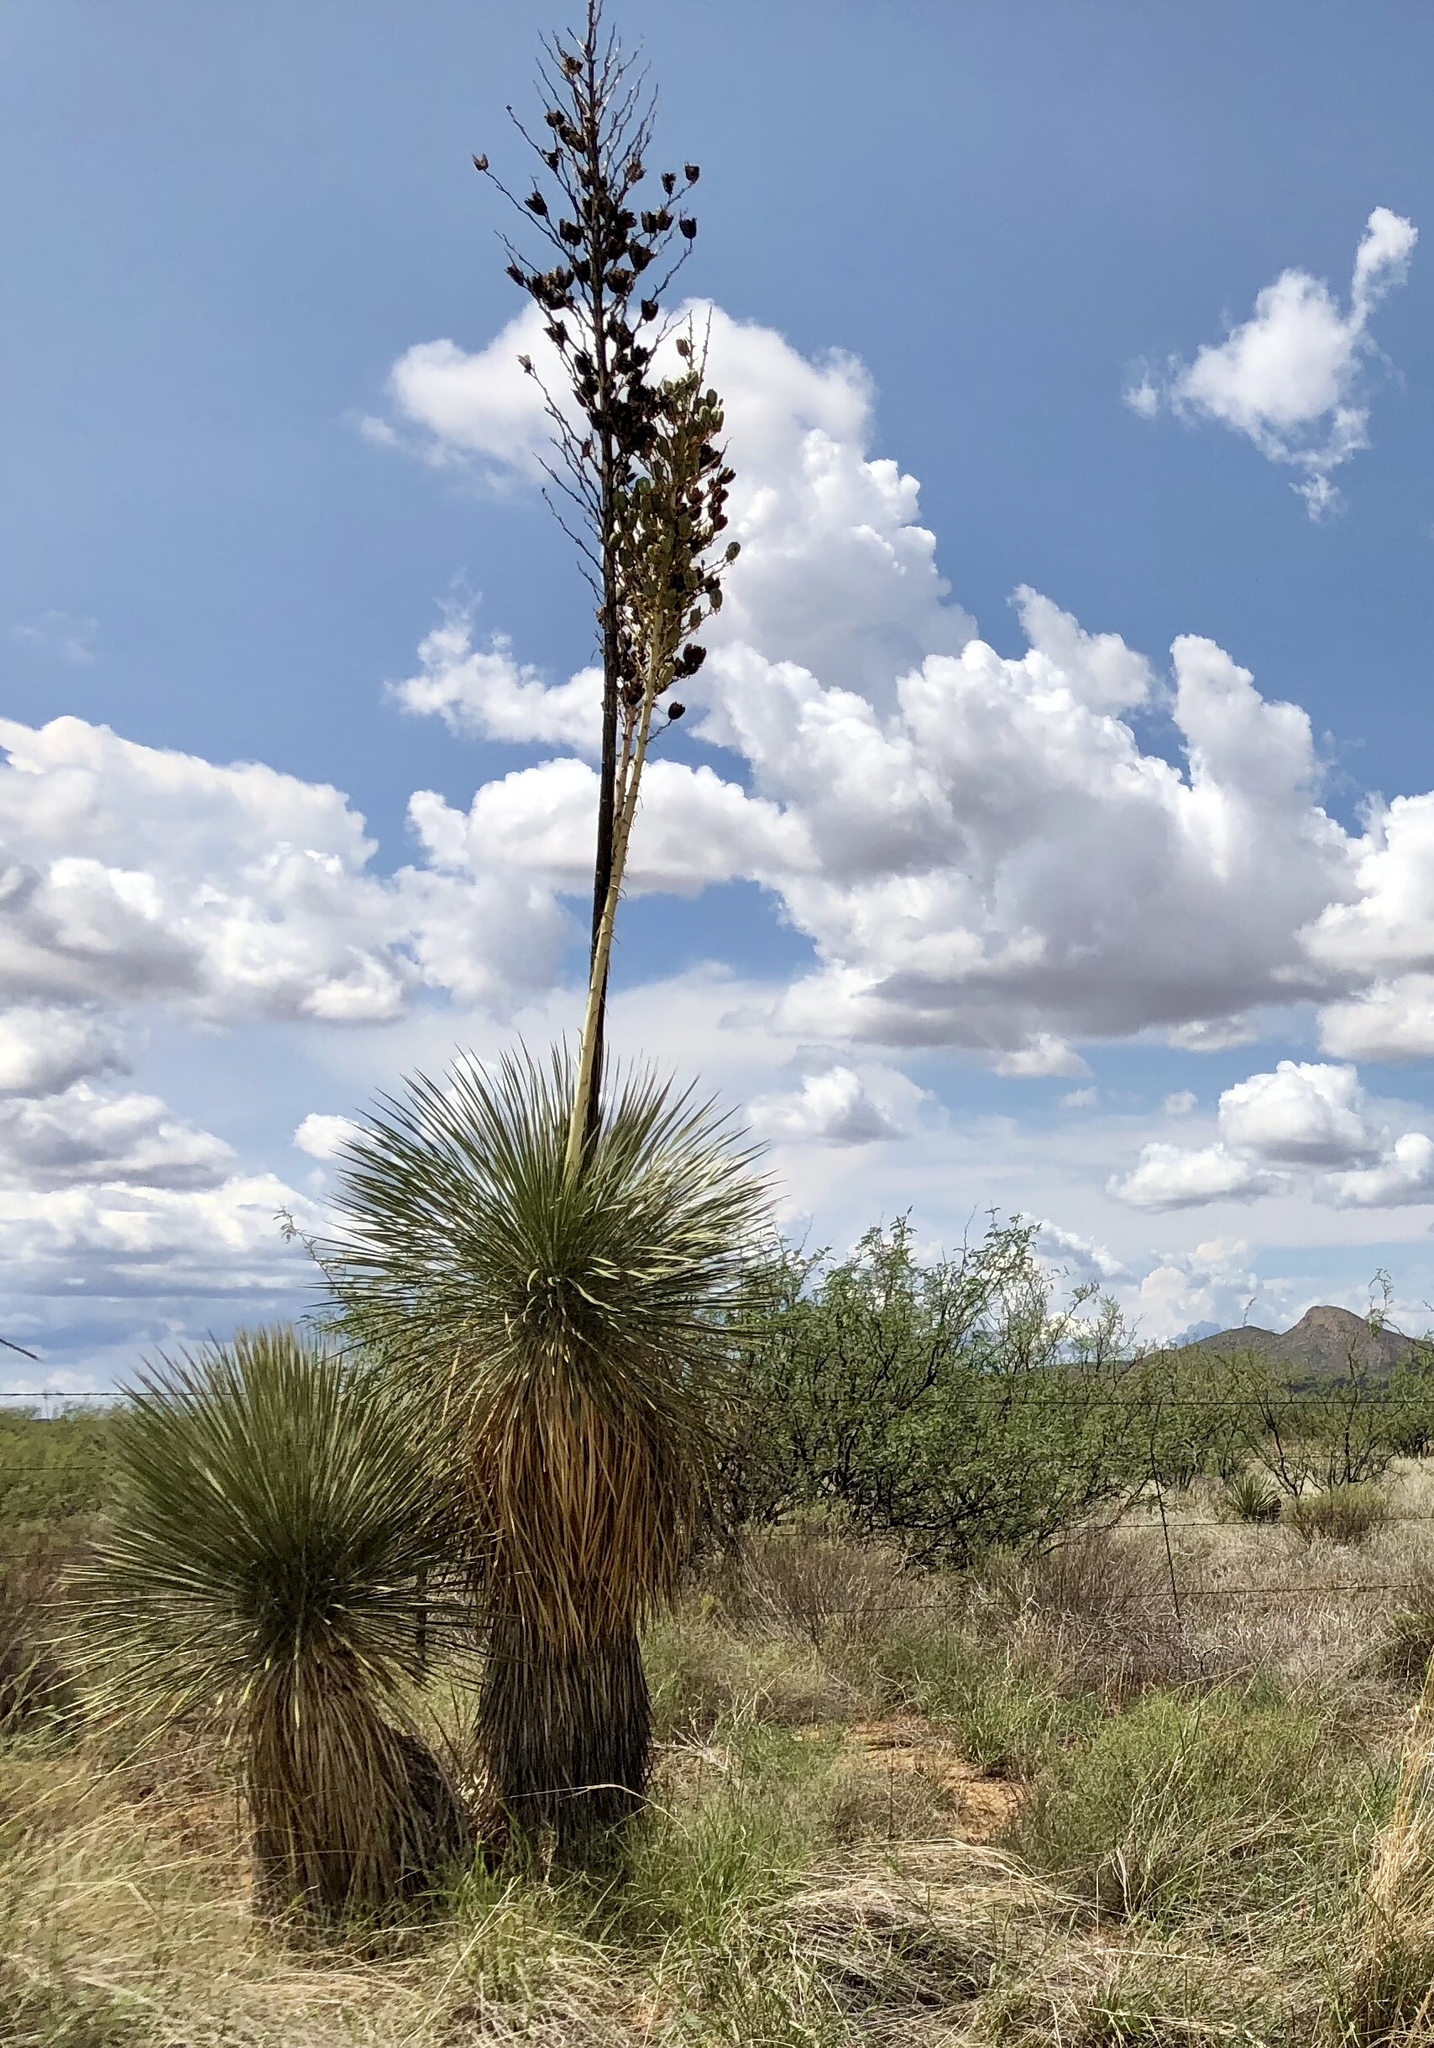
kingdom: Plantae
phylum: Tracheophyta
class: Liliopsida
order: Asparagales
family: Asparagaceae
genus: Yucca
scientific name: Yucca elata
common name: Palmella
